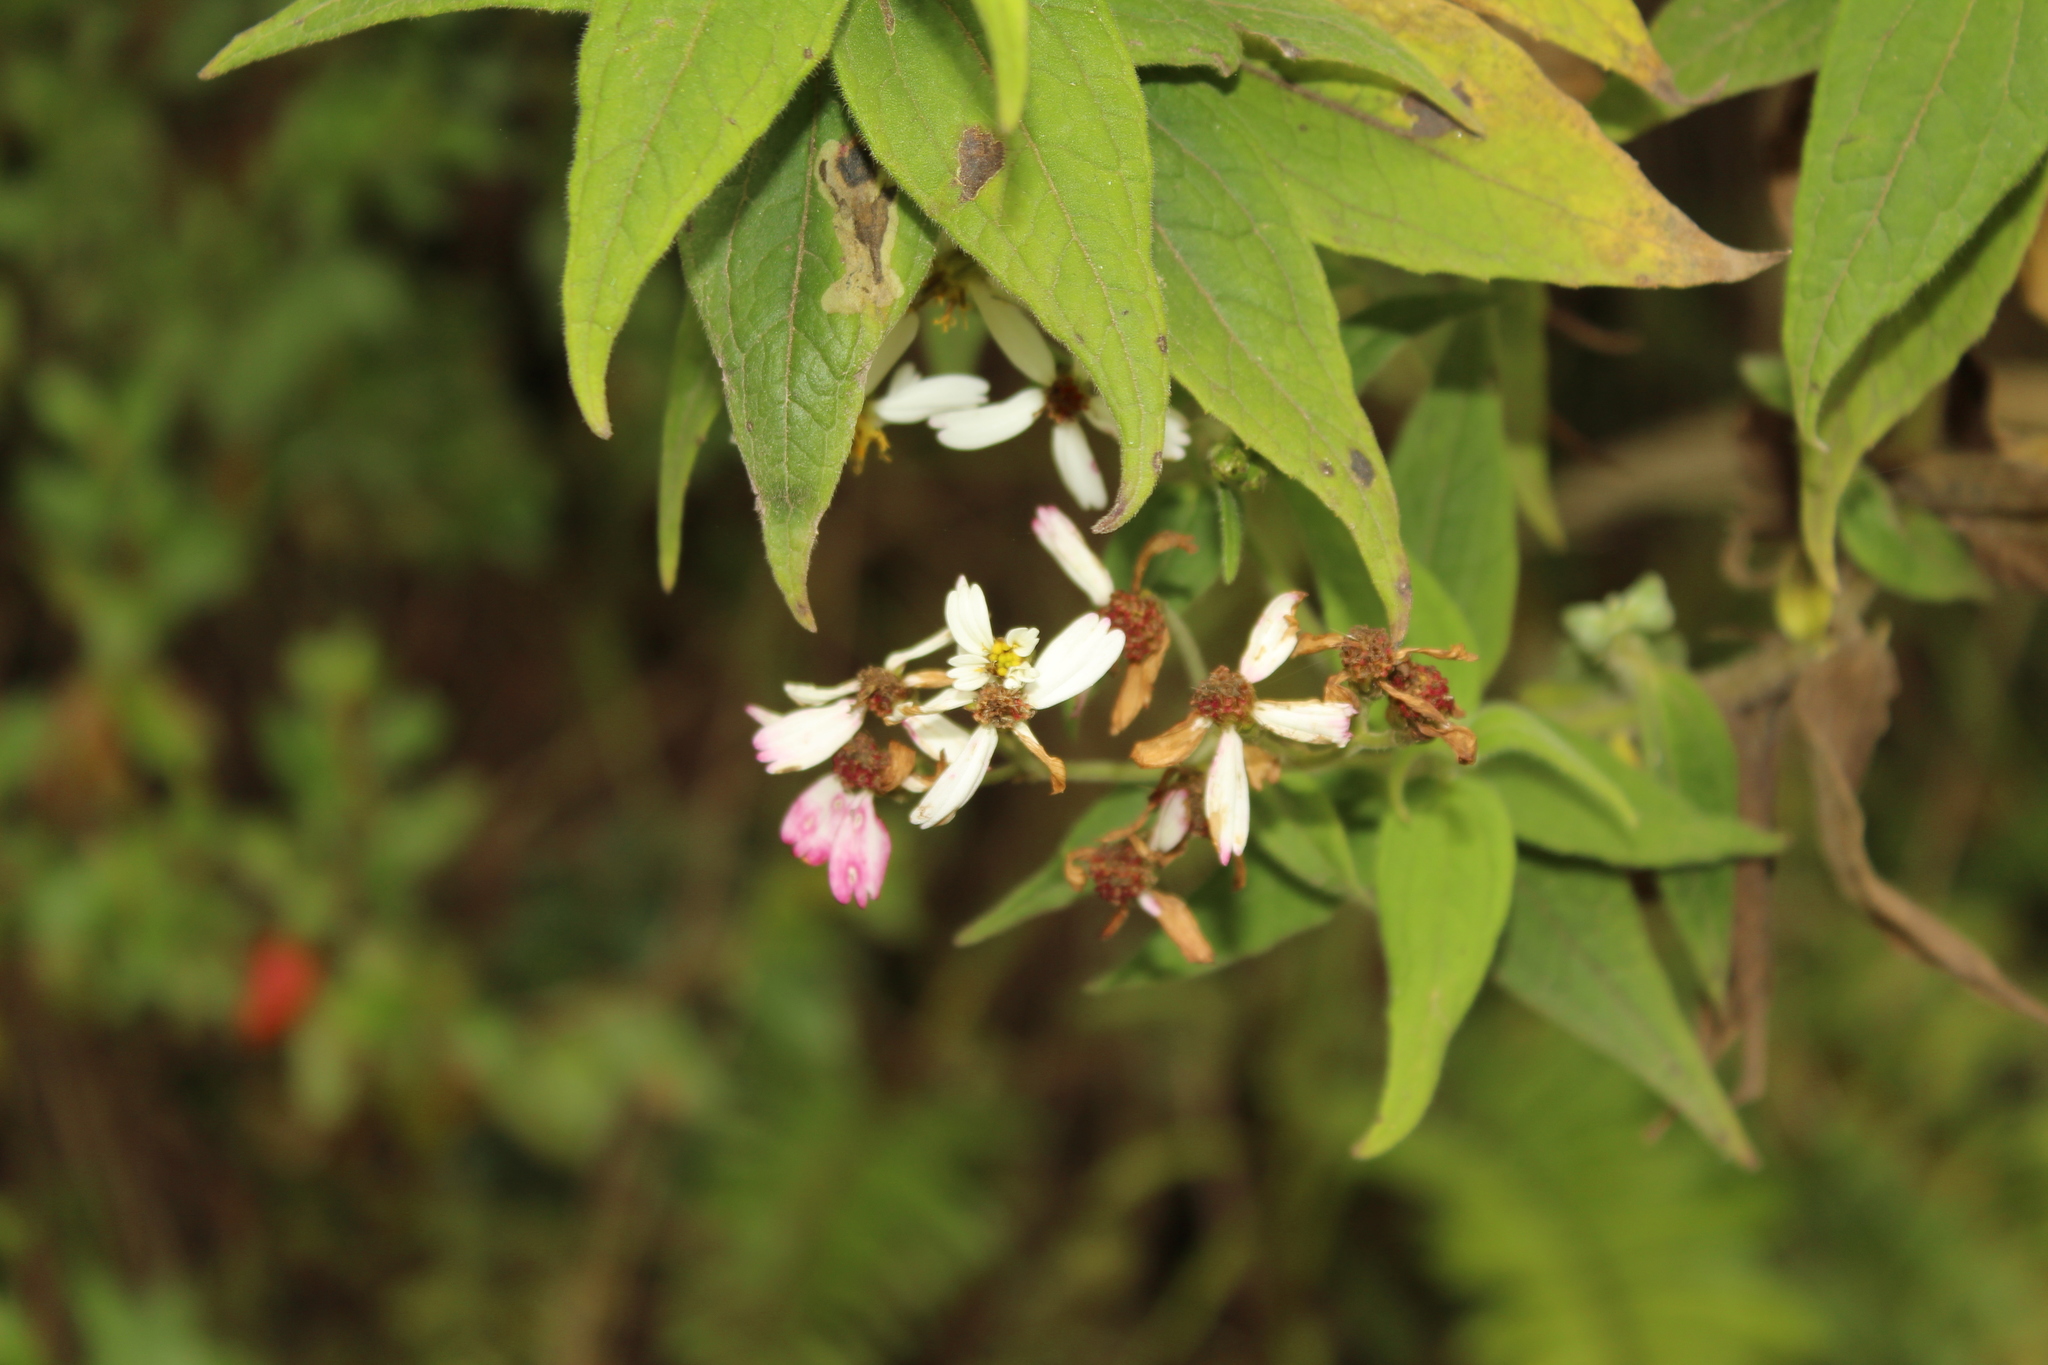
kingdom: Plantae
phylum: Tracheophyta
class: Magnoliopsida
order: Asterales
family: Asteraceae
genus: Alloispermum
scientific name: Alloispermum caracasanum
